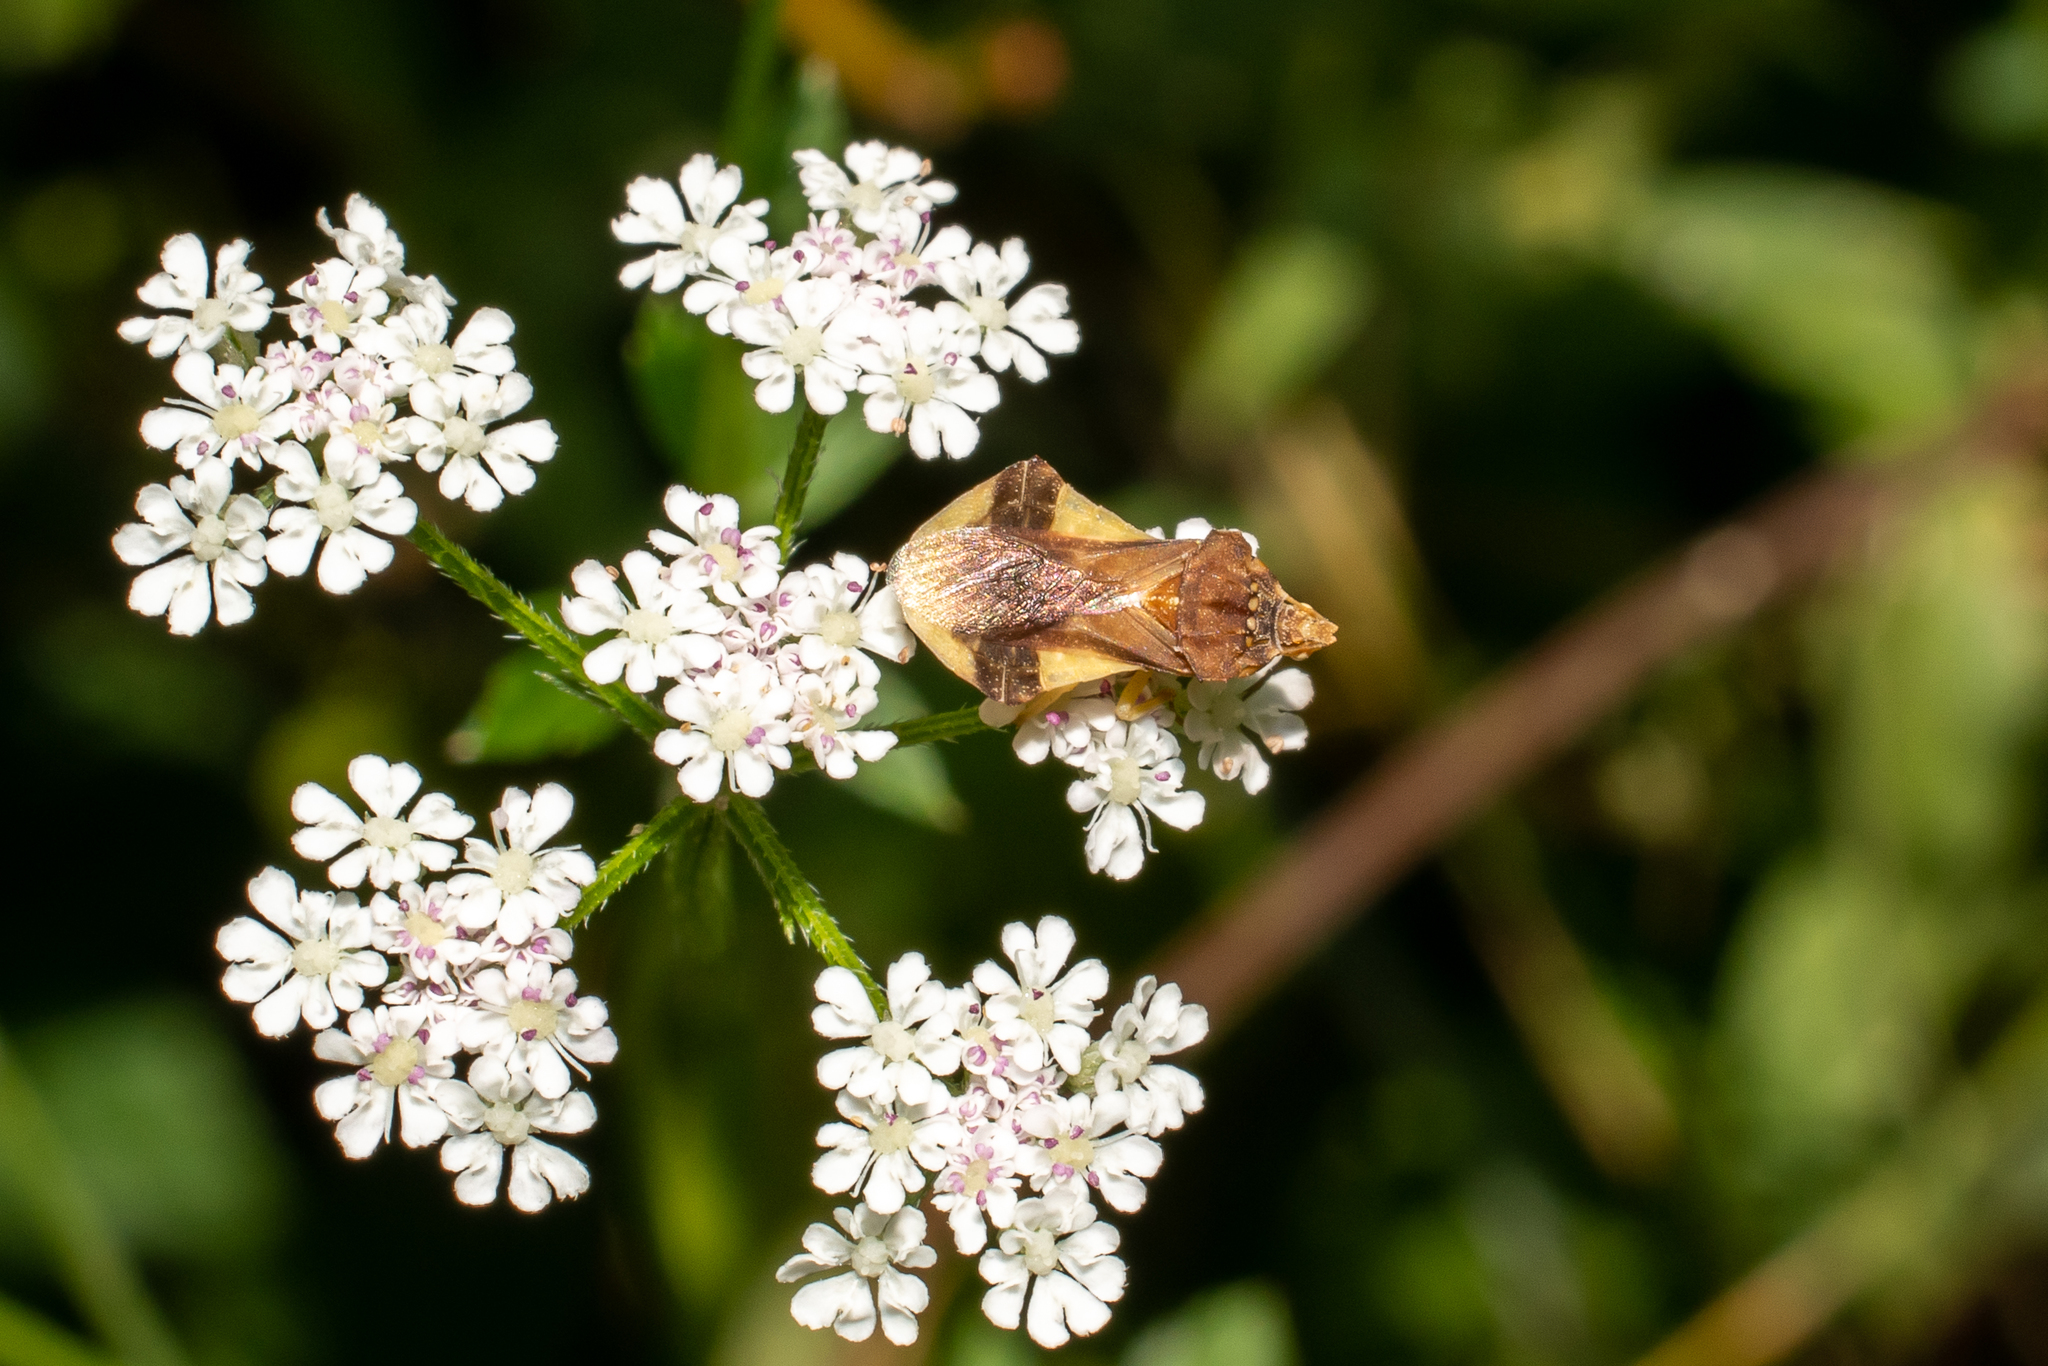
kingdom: Animalia
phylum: Arthropoda
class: Insecta
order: Hemiptera
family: Reduviidae
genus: Phymata
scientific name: Phymata pennsylvanica
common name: Pennsylvania ambush bug
